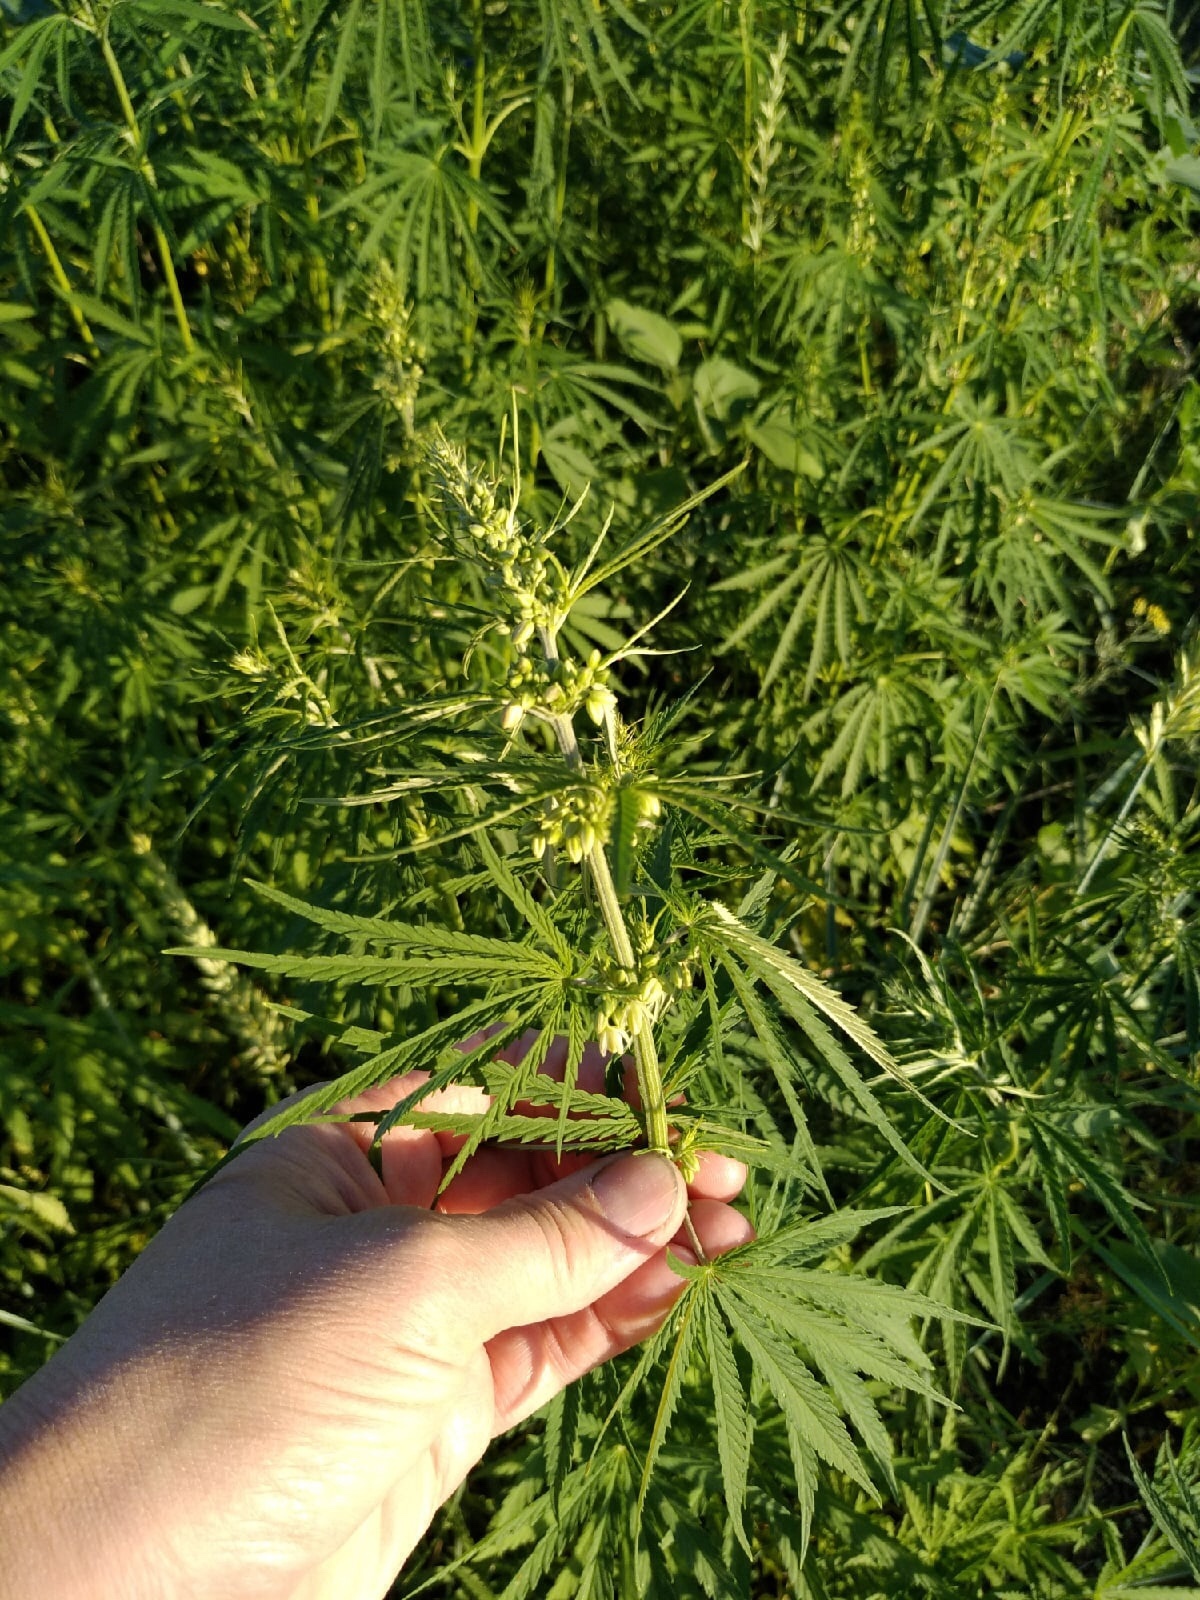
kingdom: Plantae
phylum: Tracheophyta
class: Magnoliopsida
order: Rosales
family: Cannabaceae
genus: Cannabis
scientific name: Cannabis sativa
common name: Hemp
